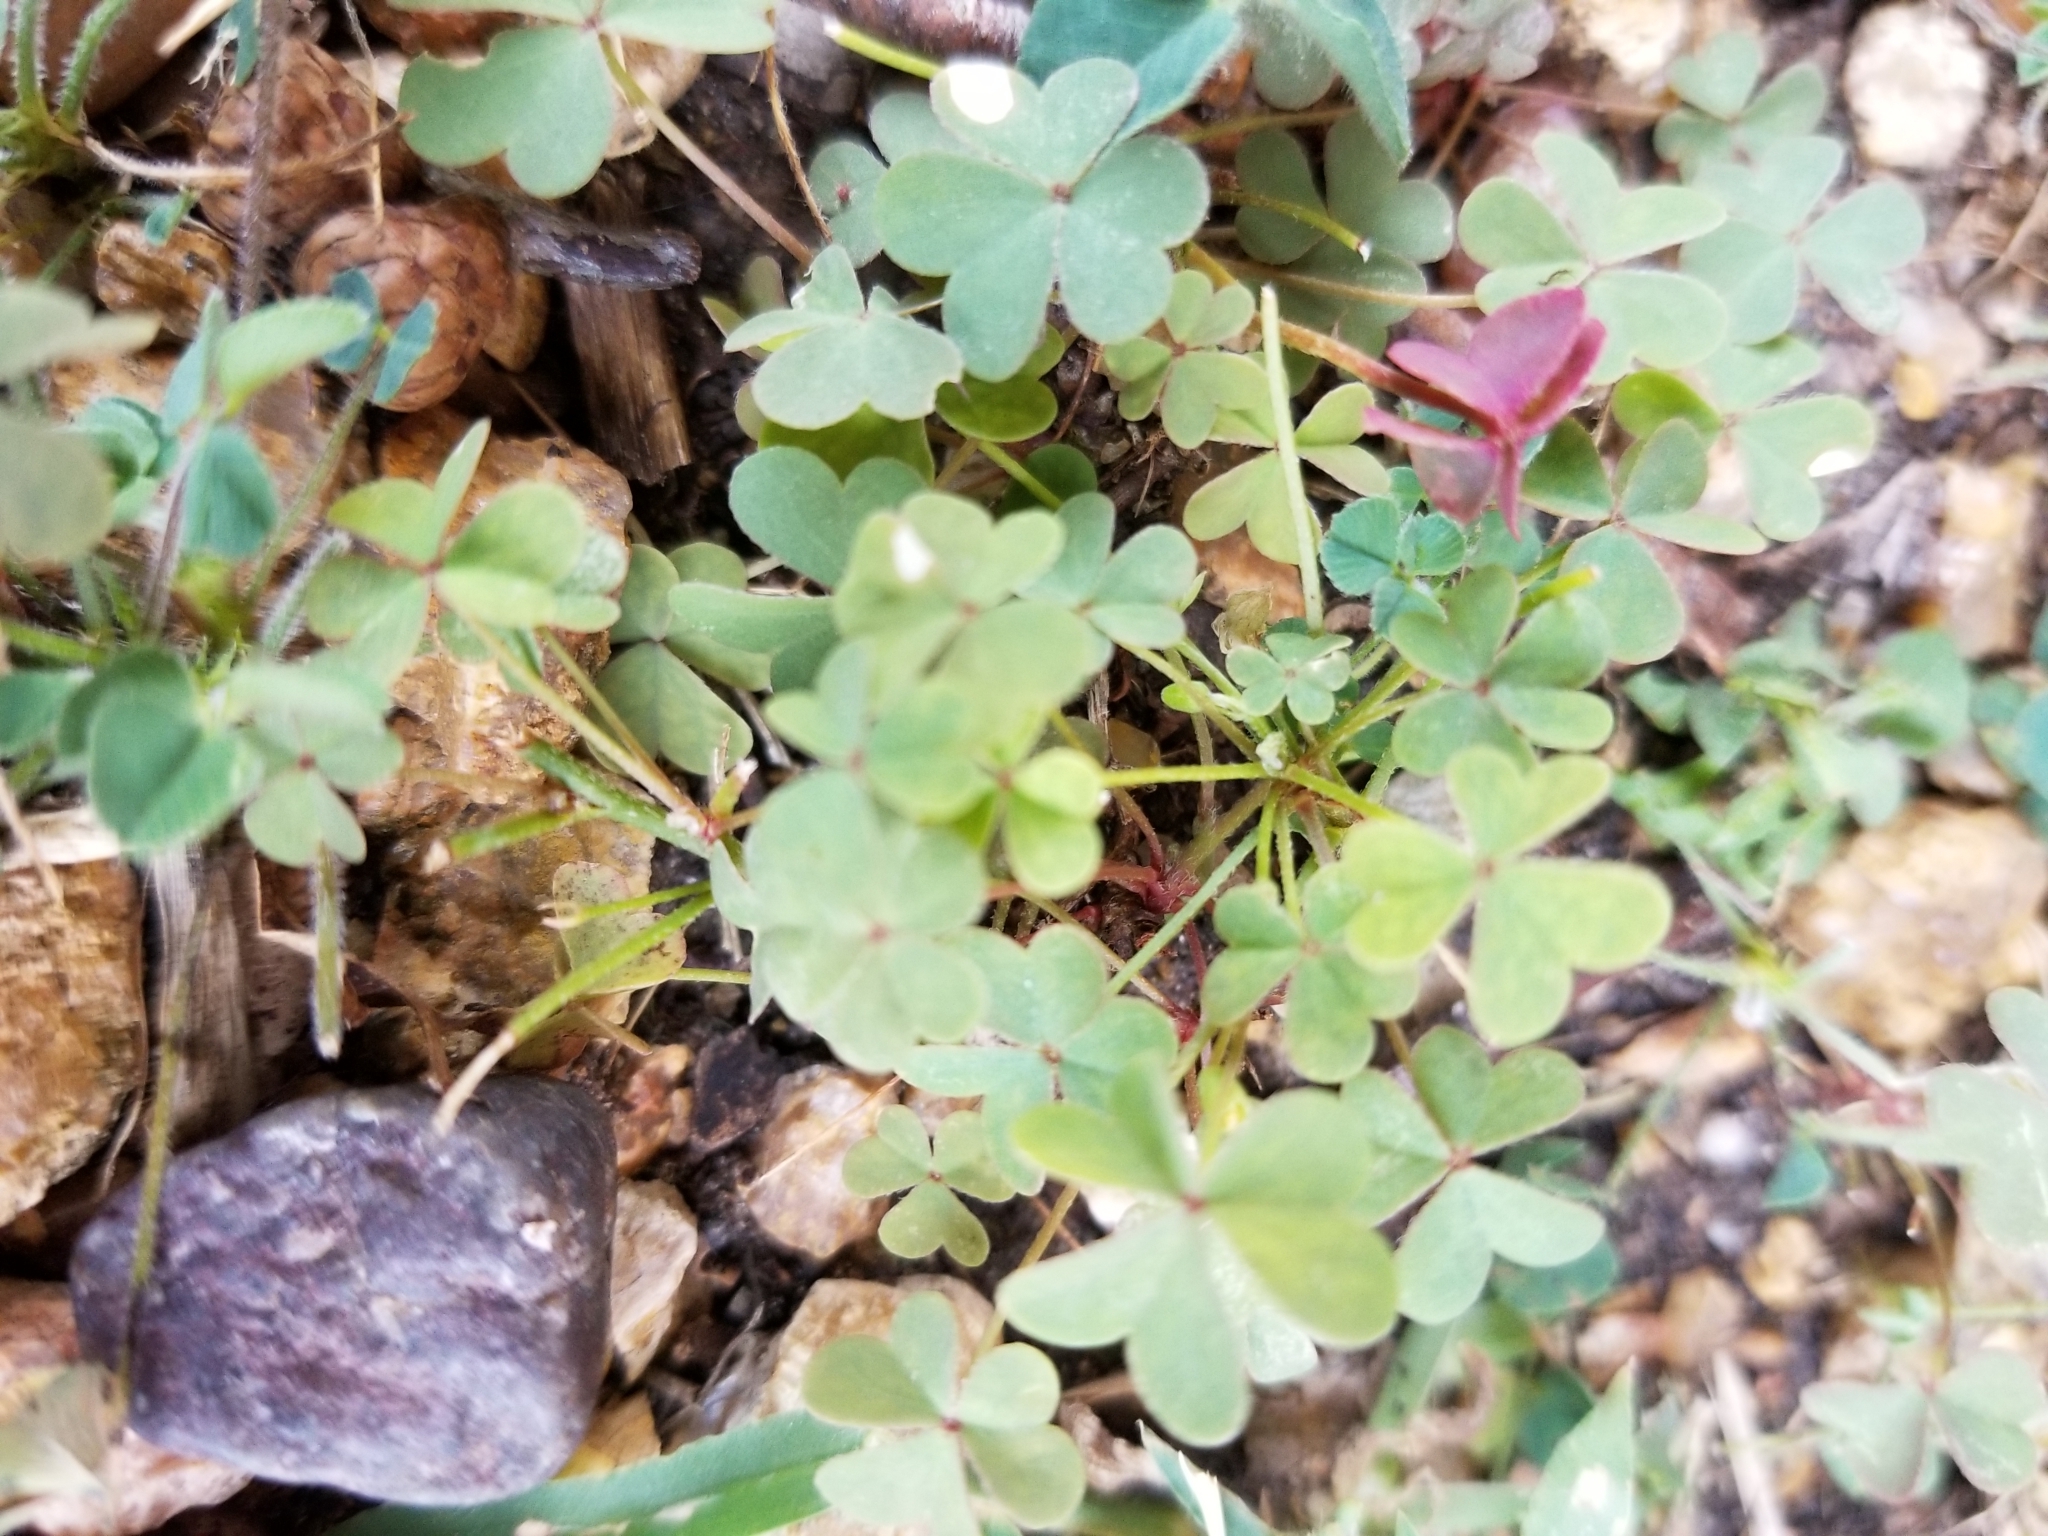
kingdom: Plantae
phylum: Tracheophyta
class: Magnoliopsida
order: Oxalidales
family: Oxalidaceae
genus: Oxalis
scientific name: Oxalis dillenii
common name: Sussex yellow-sorrel
